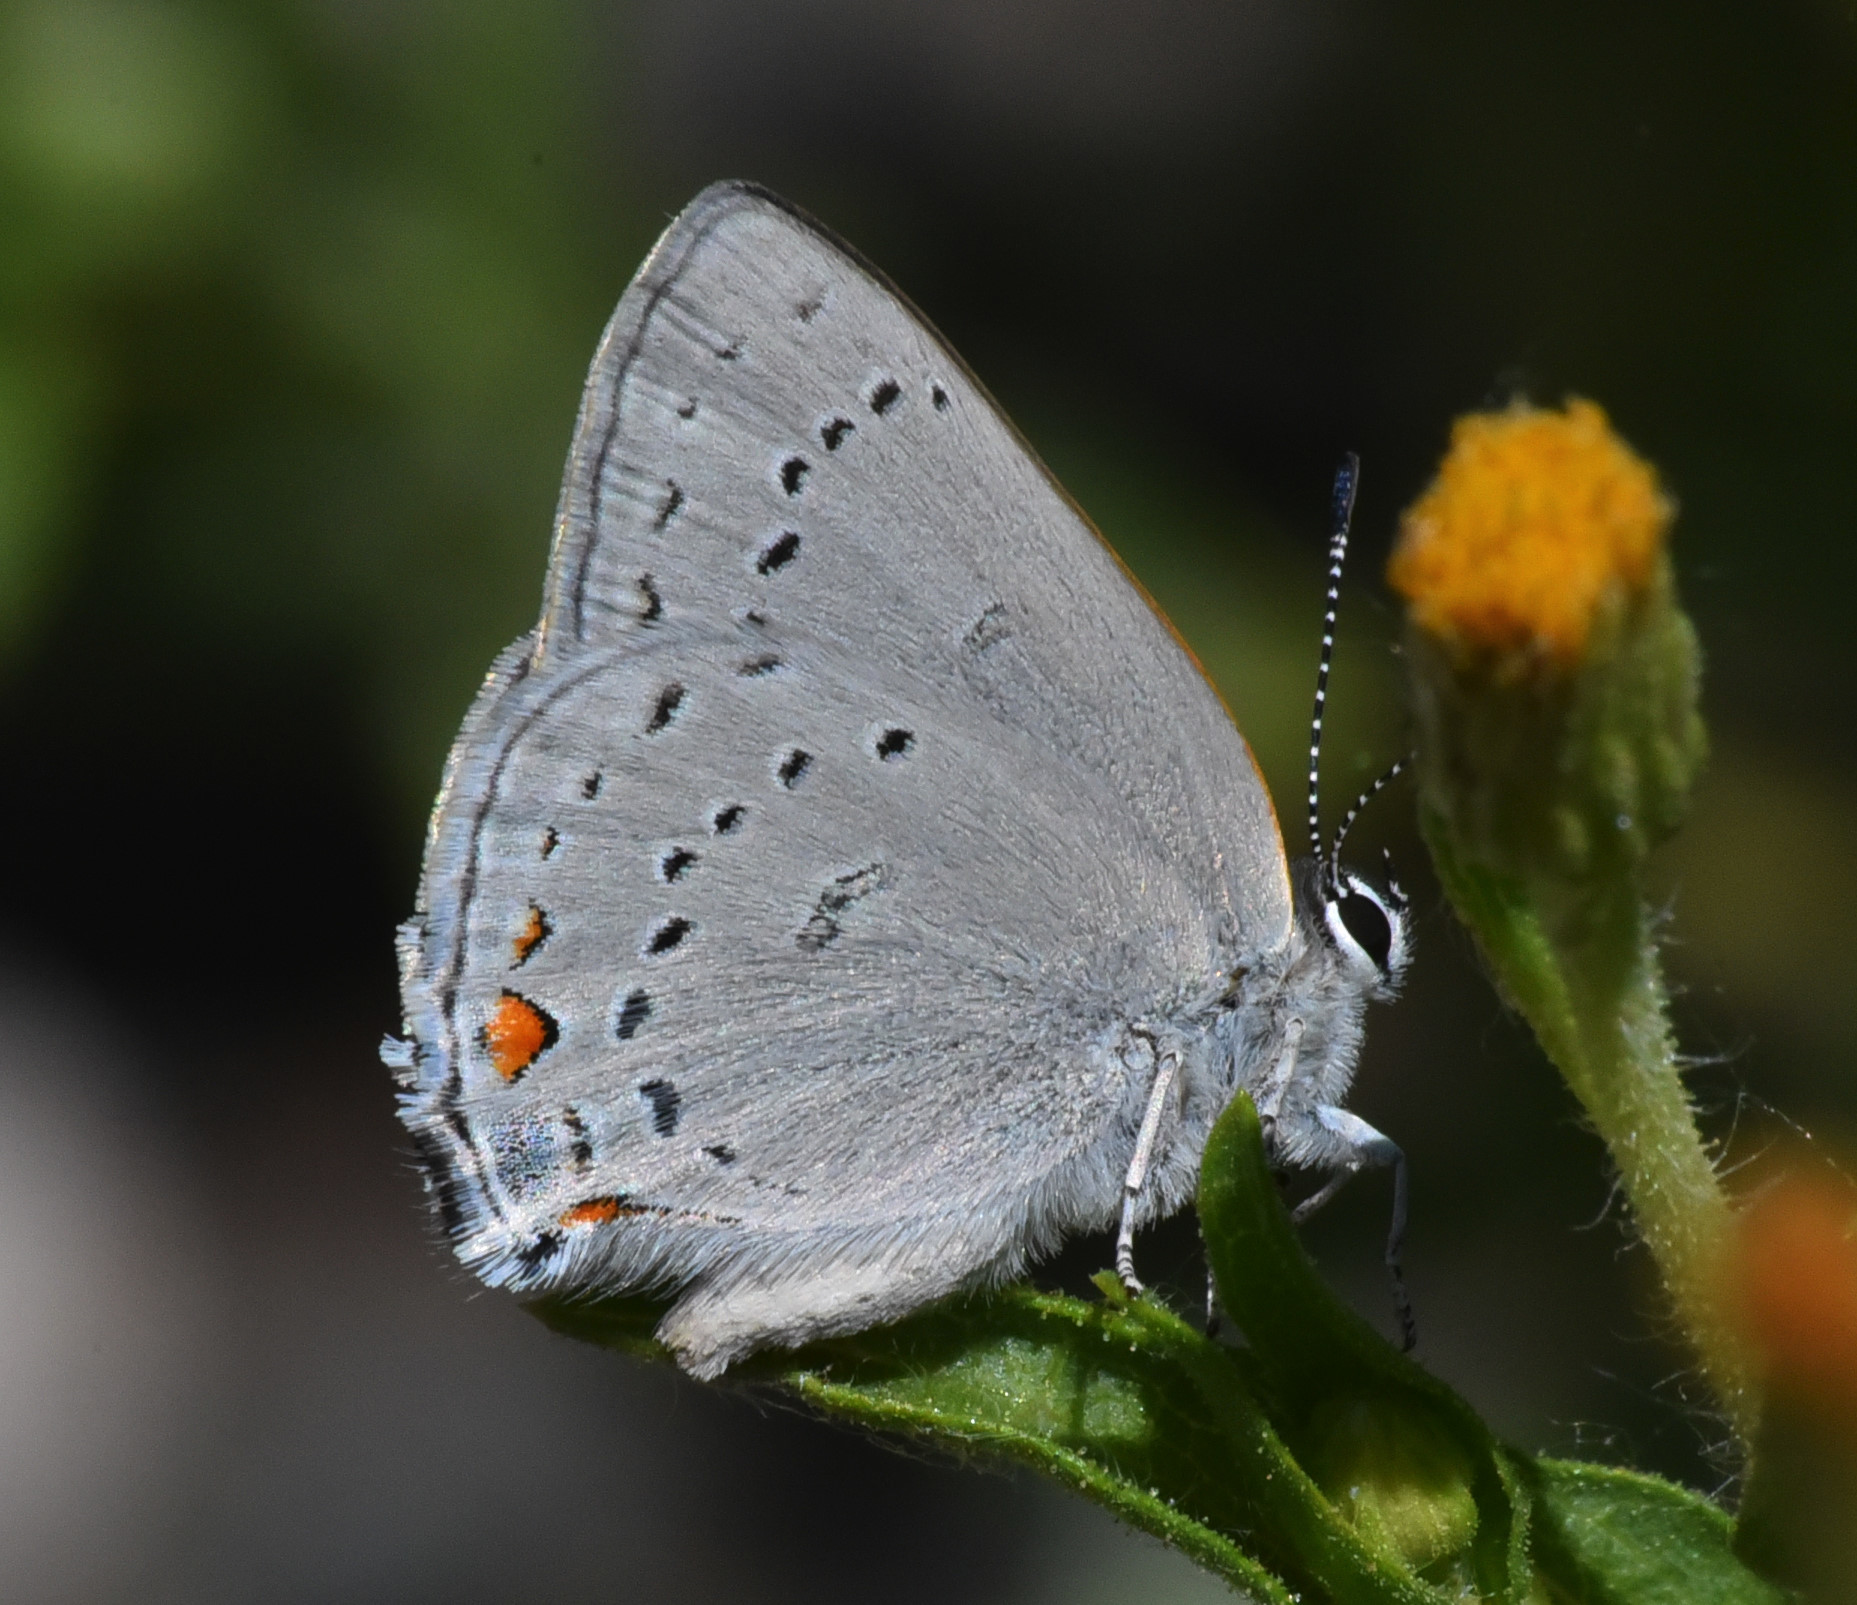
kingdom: Animalia
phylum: Arthropoda
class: Insecta
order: Lepidoptera
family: Lycaenidae
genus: Strymon
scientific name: Strymon acadica
